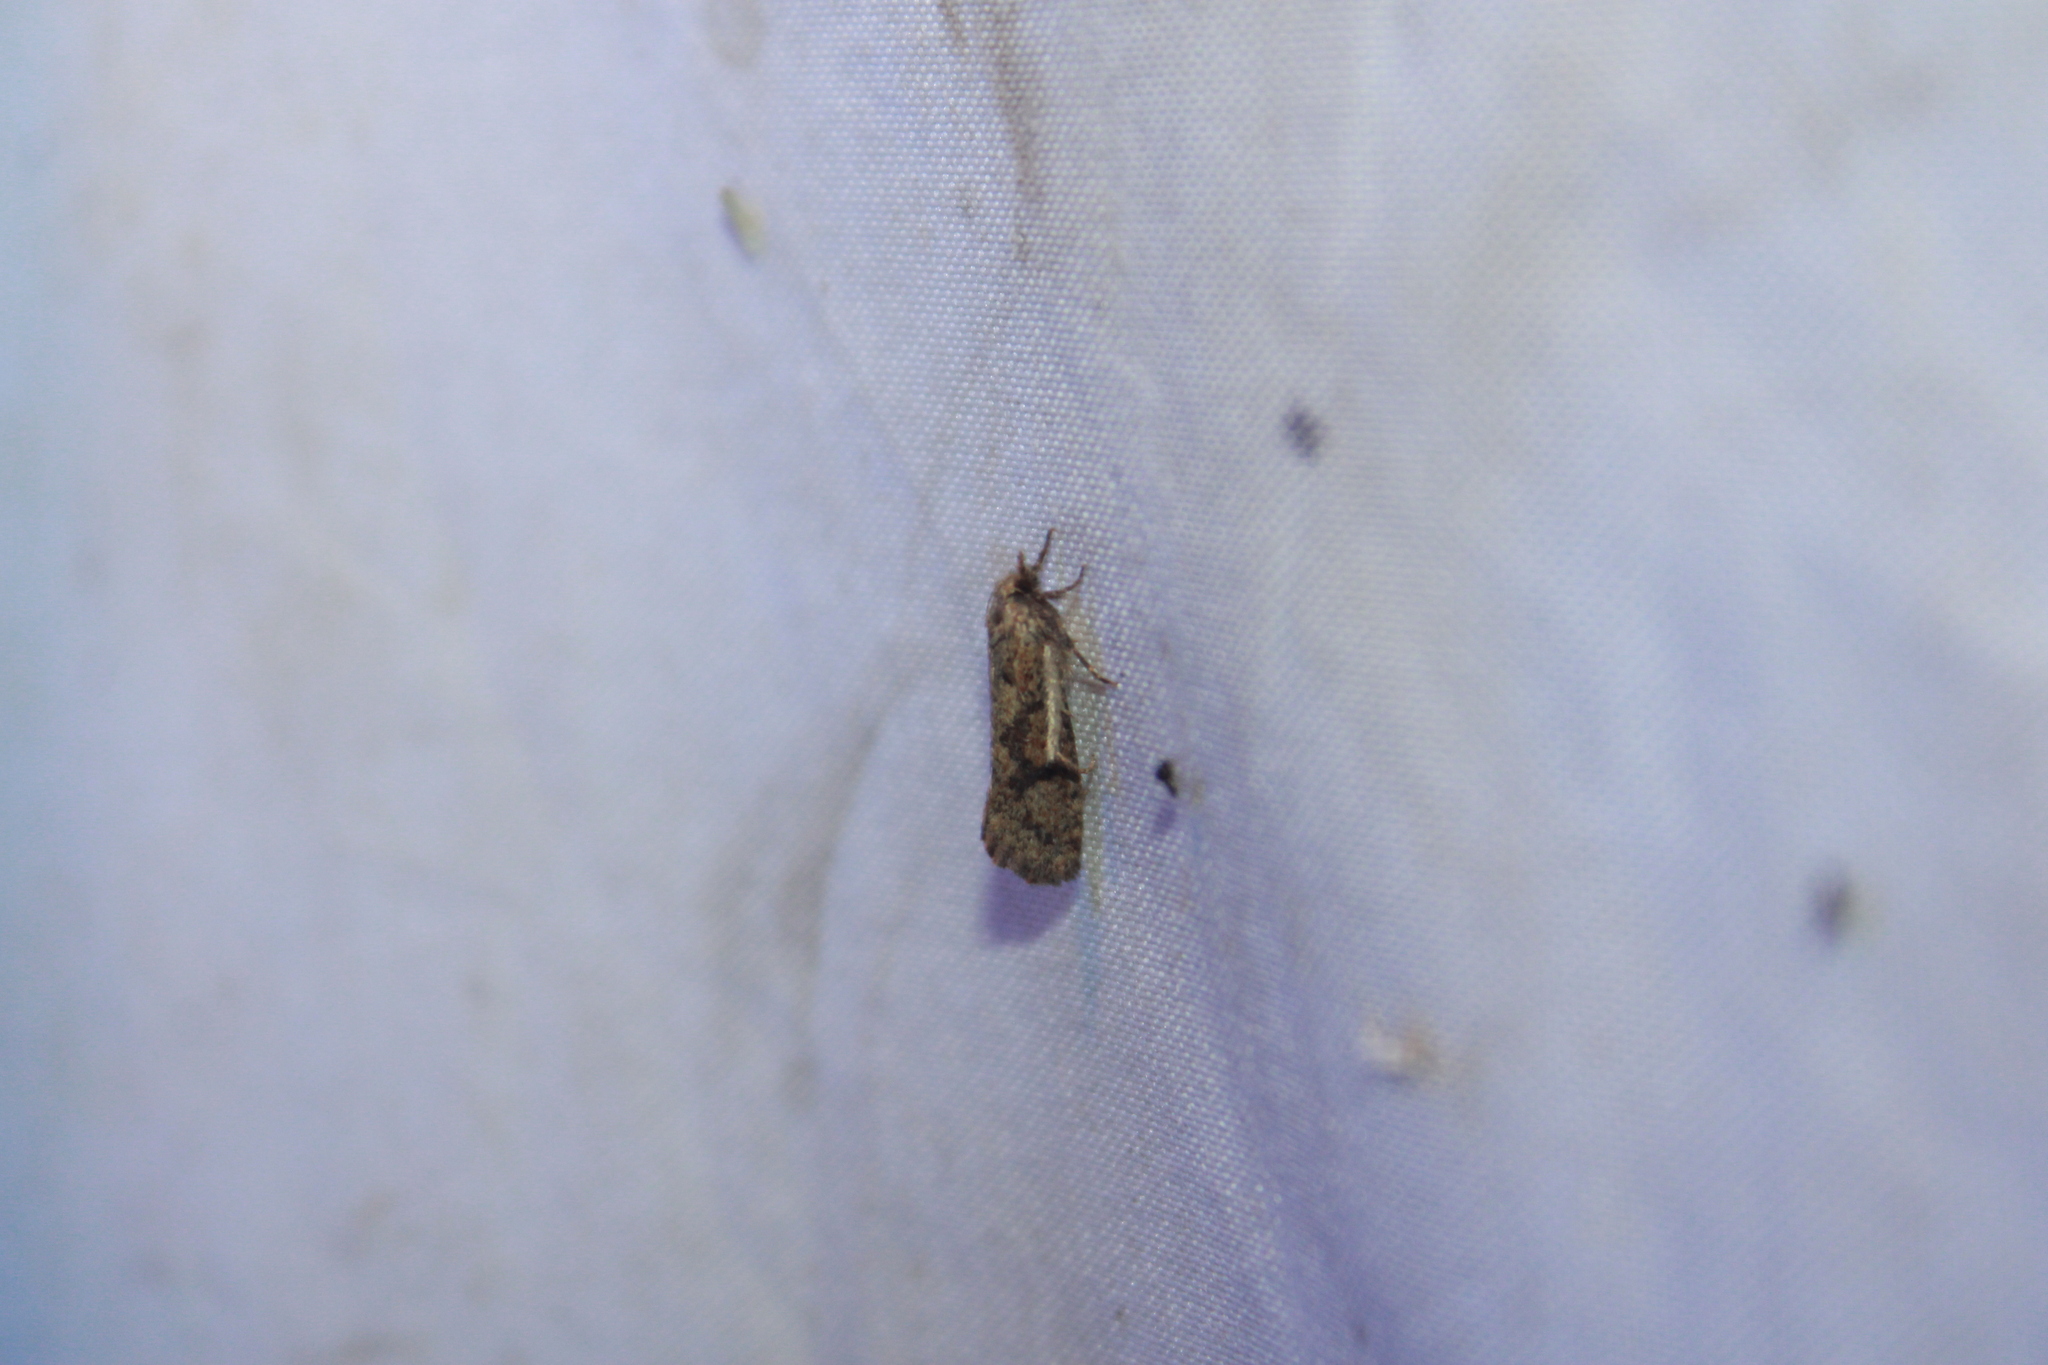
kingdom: Animalia
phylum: Arthropoda
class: Insecta
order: Lepidoptera
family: Tineidae
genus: Acrolophus
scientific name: Acrolophus walsinghami
